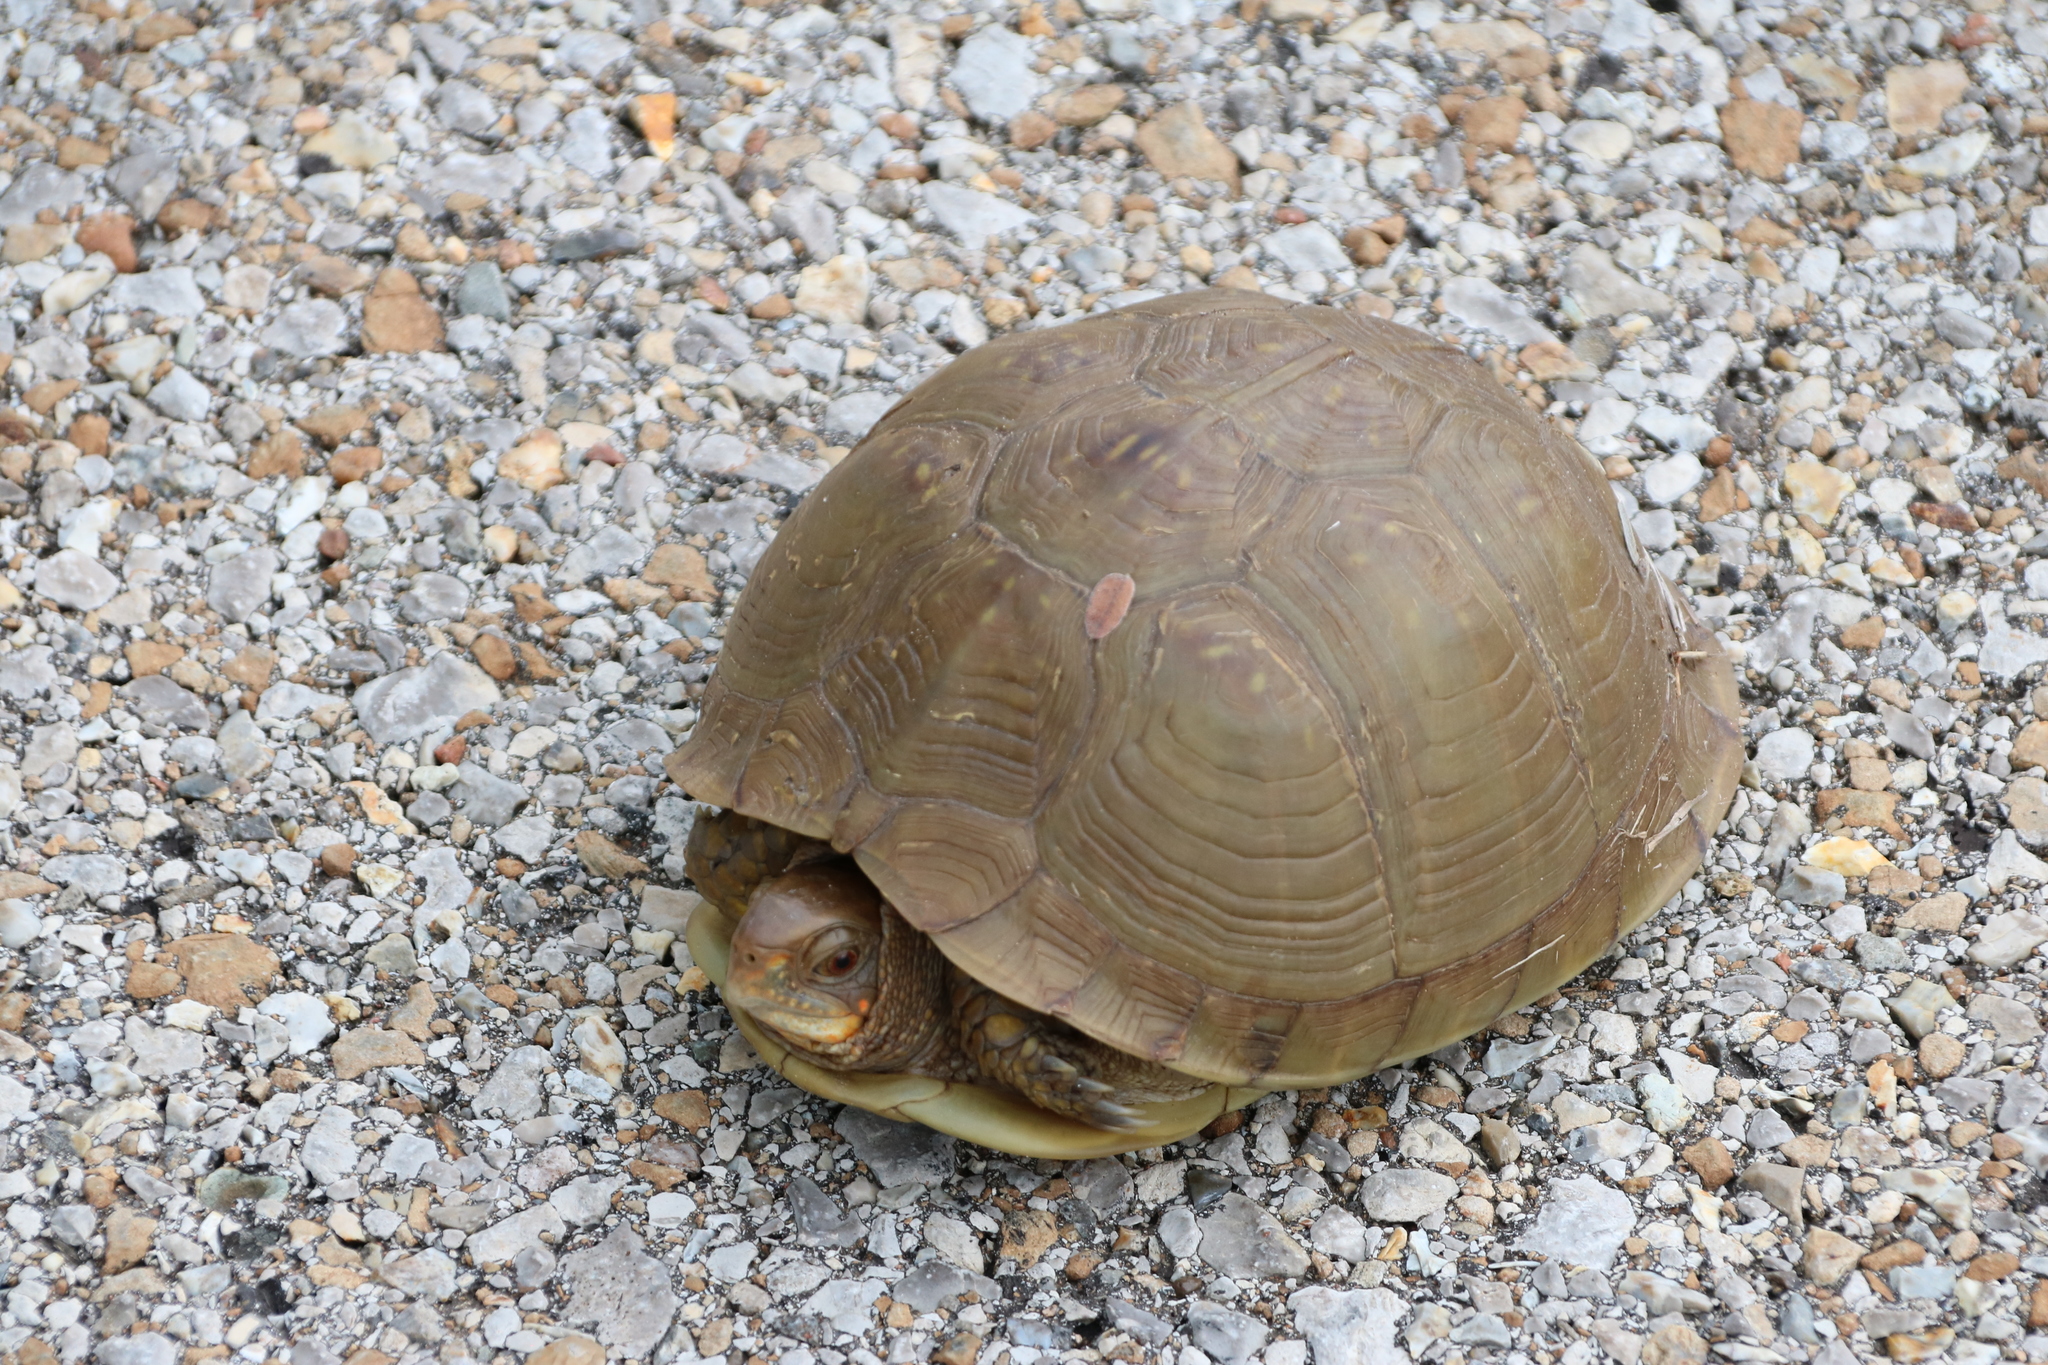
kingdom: Animalia
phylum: Chordata
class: Testudines
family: Emydidae
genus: Terrapene
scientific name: Terrapene carolina
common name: Common box turtle
